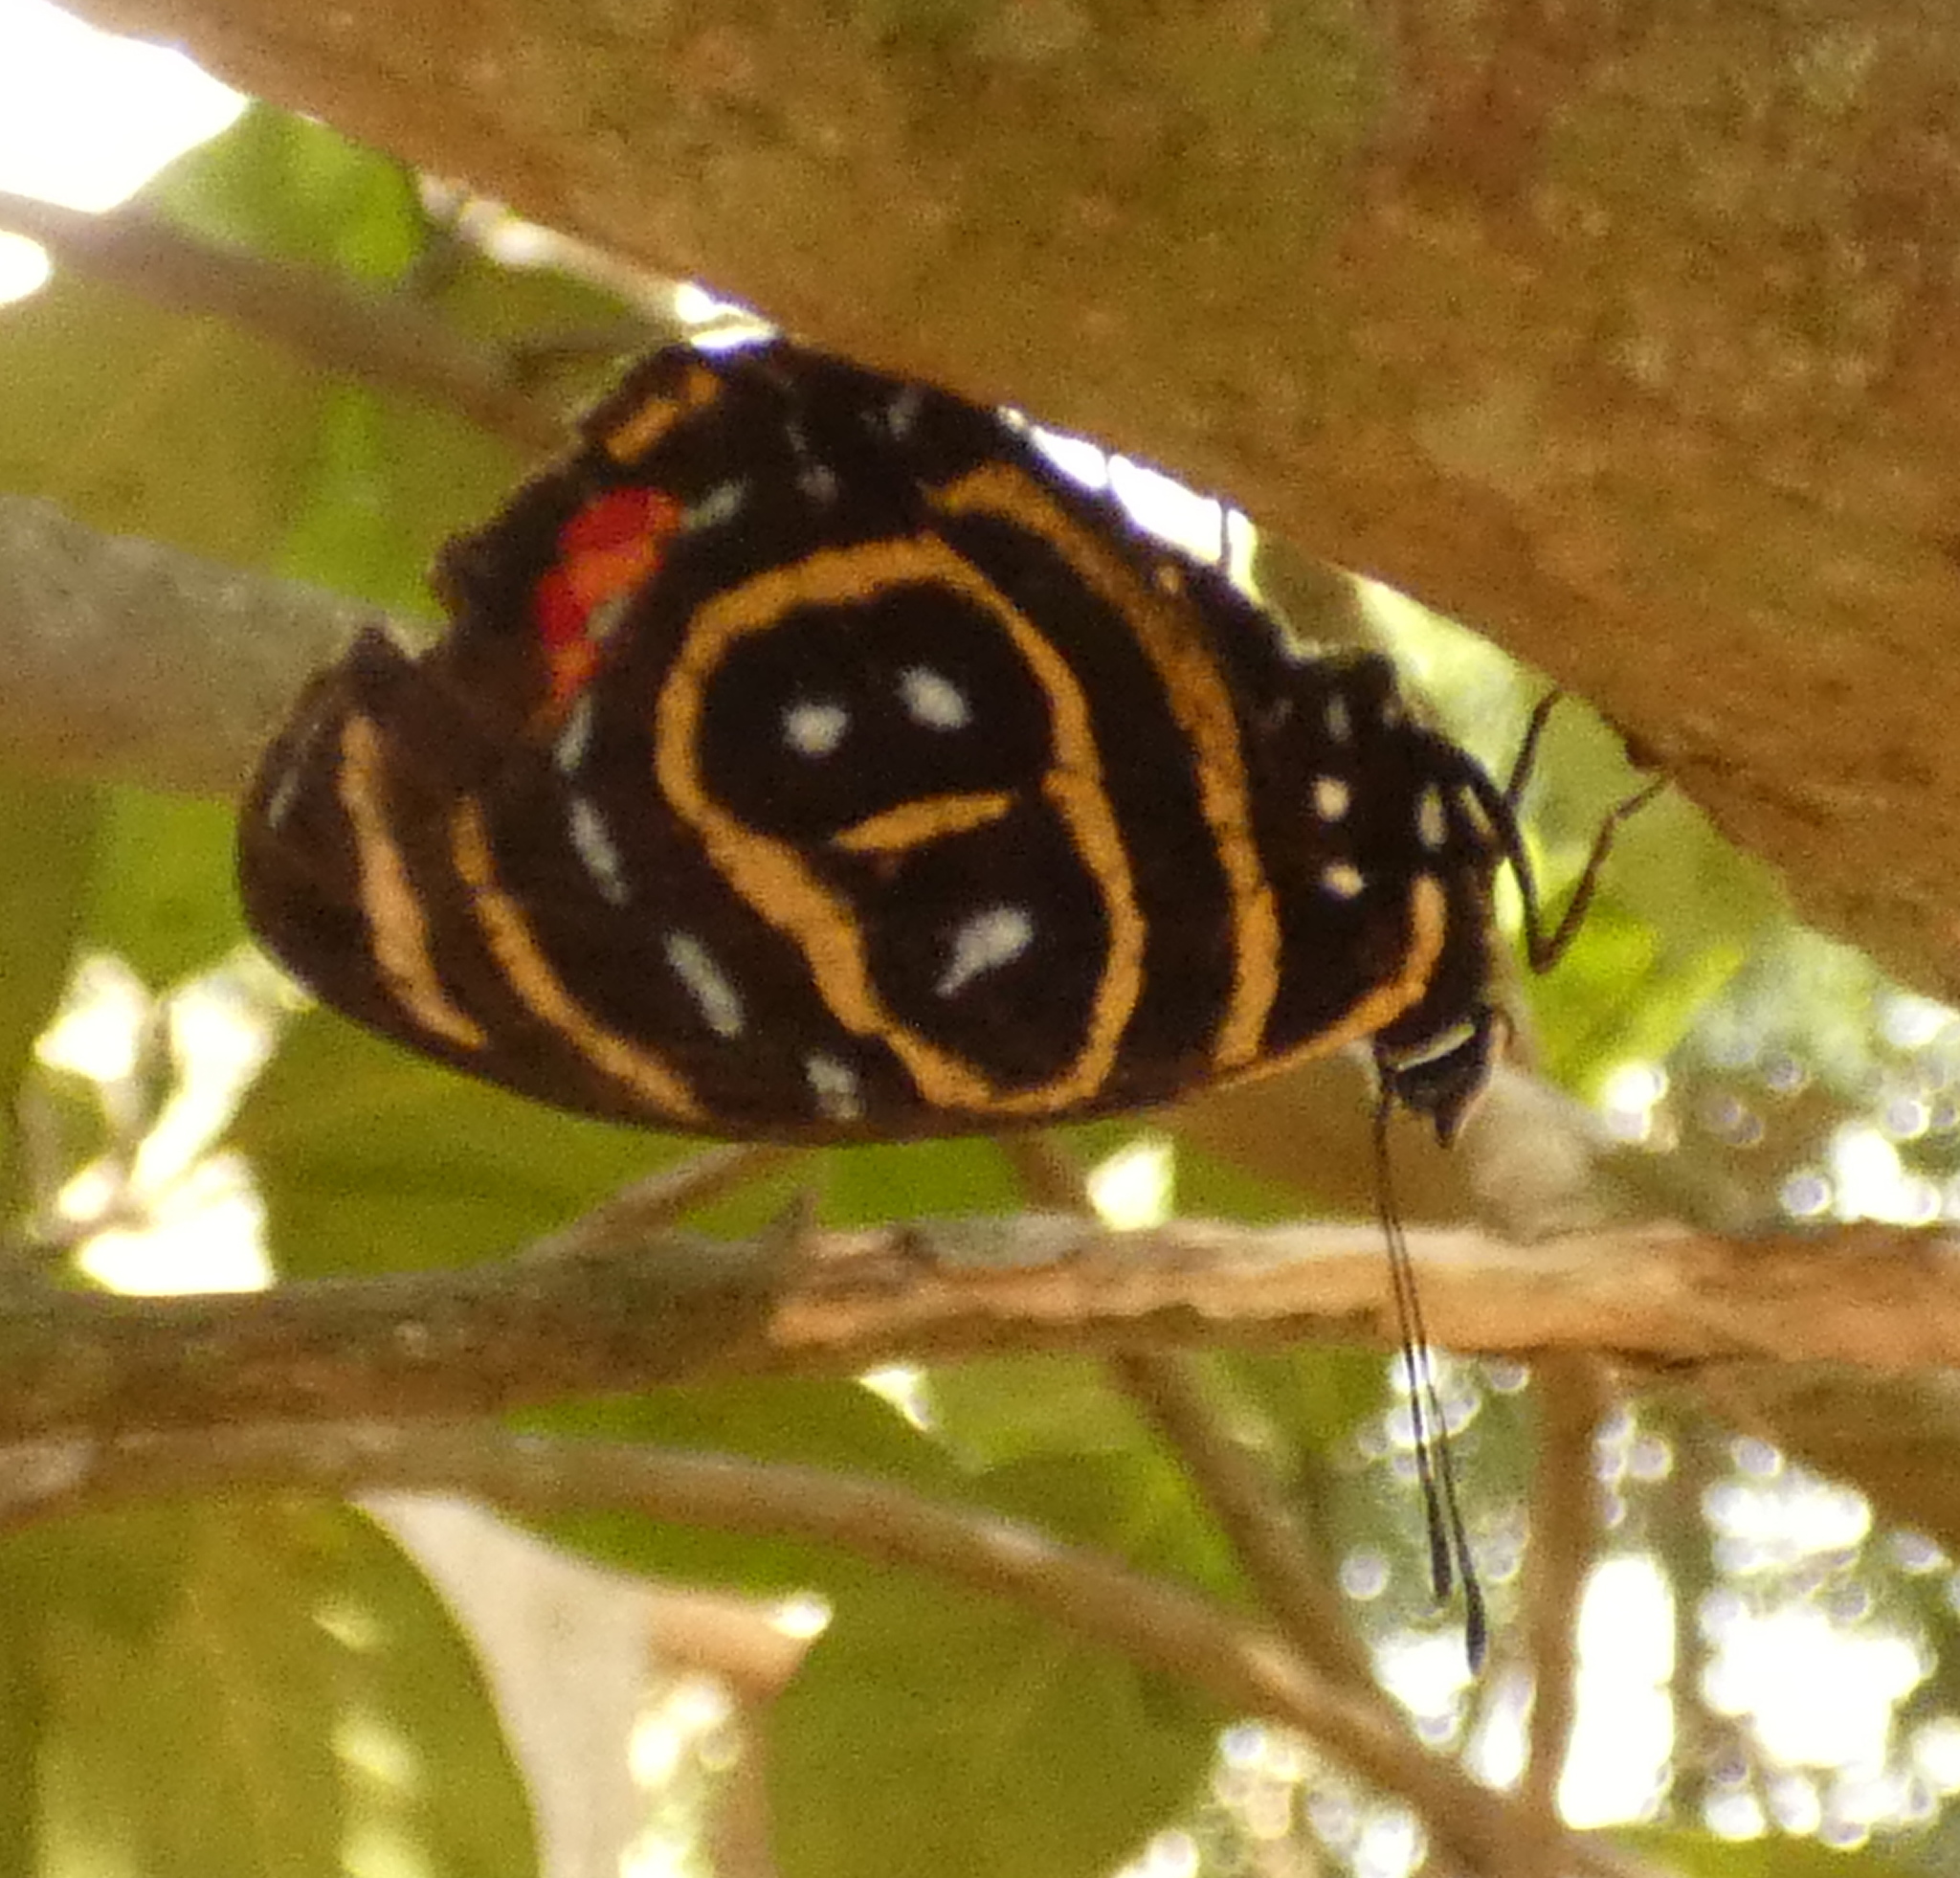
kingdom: Animalia
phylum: Arthropoda
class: Insecta
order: Lepidoptera
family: Nymphalidae
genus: Catagramma
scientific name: Catagramma astarte
